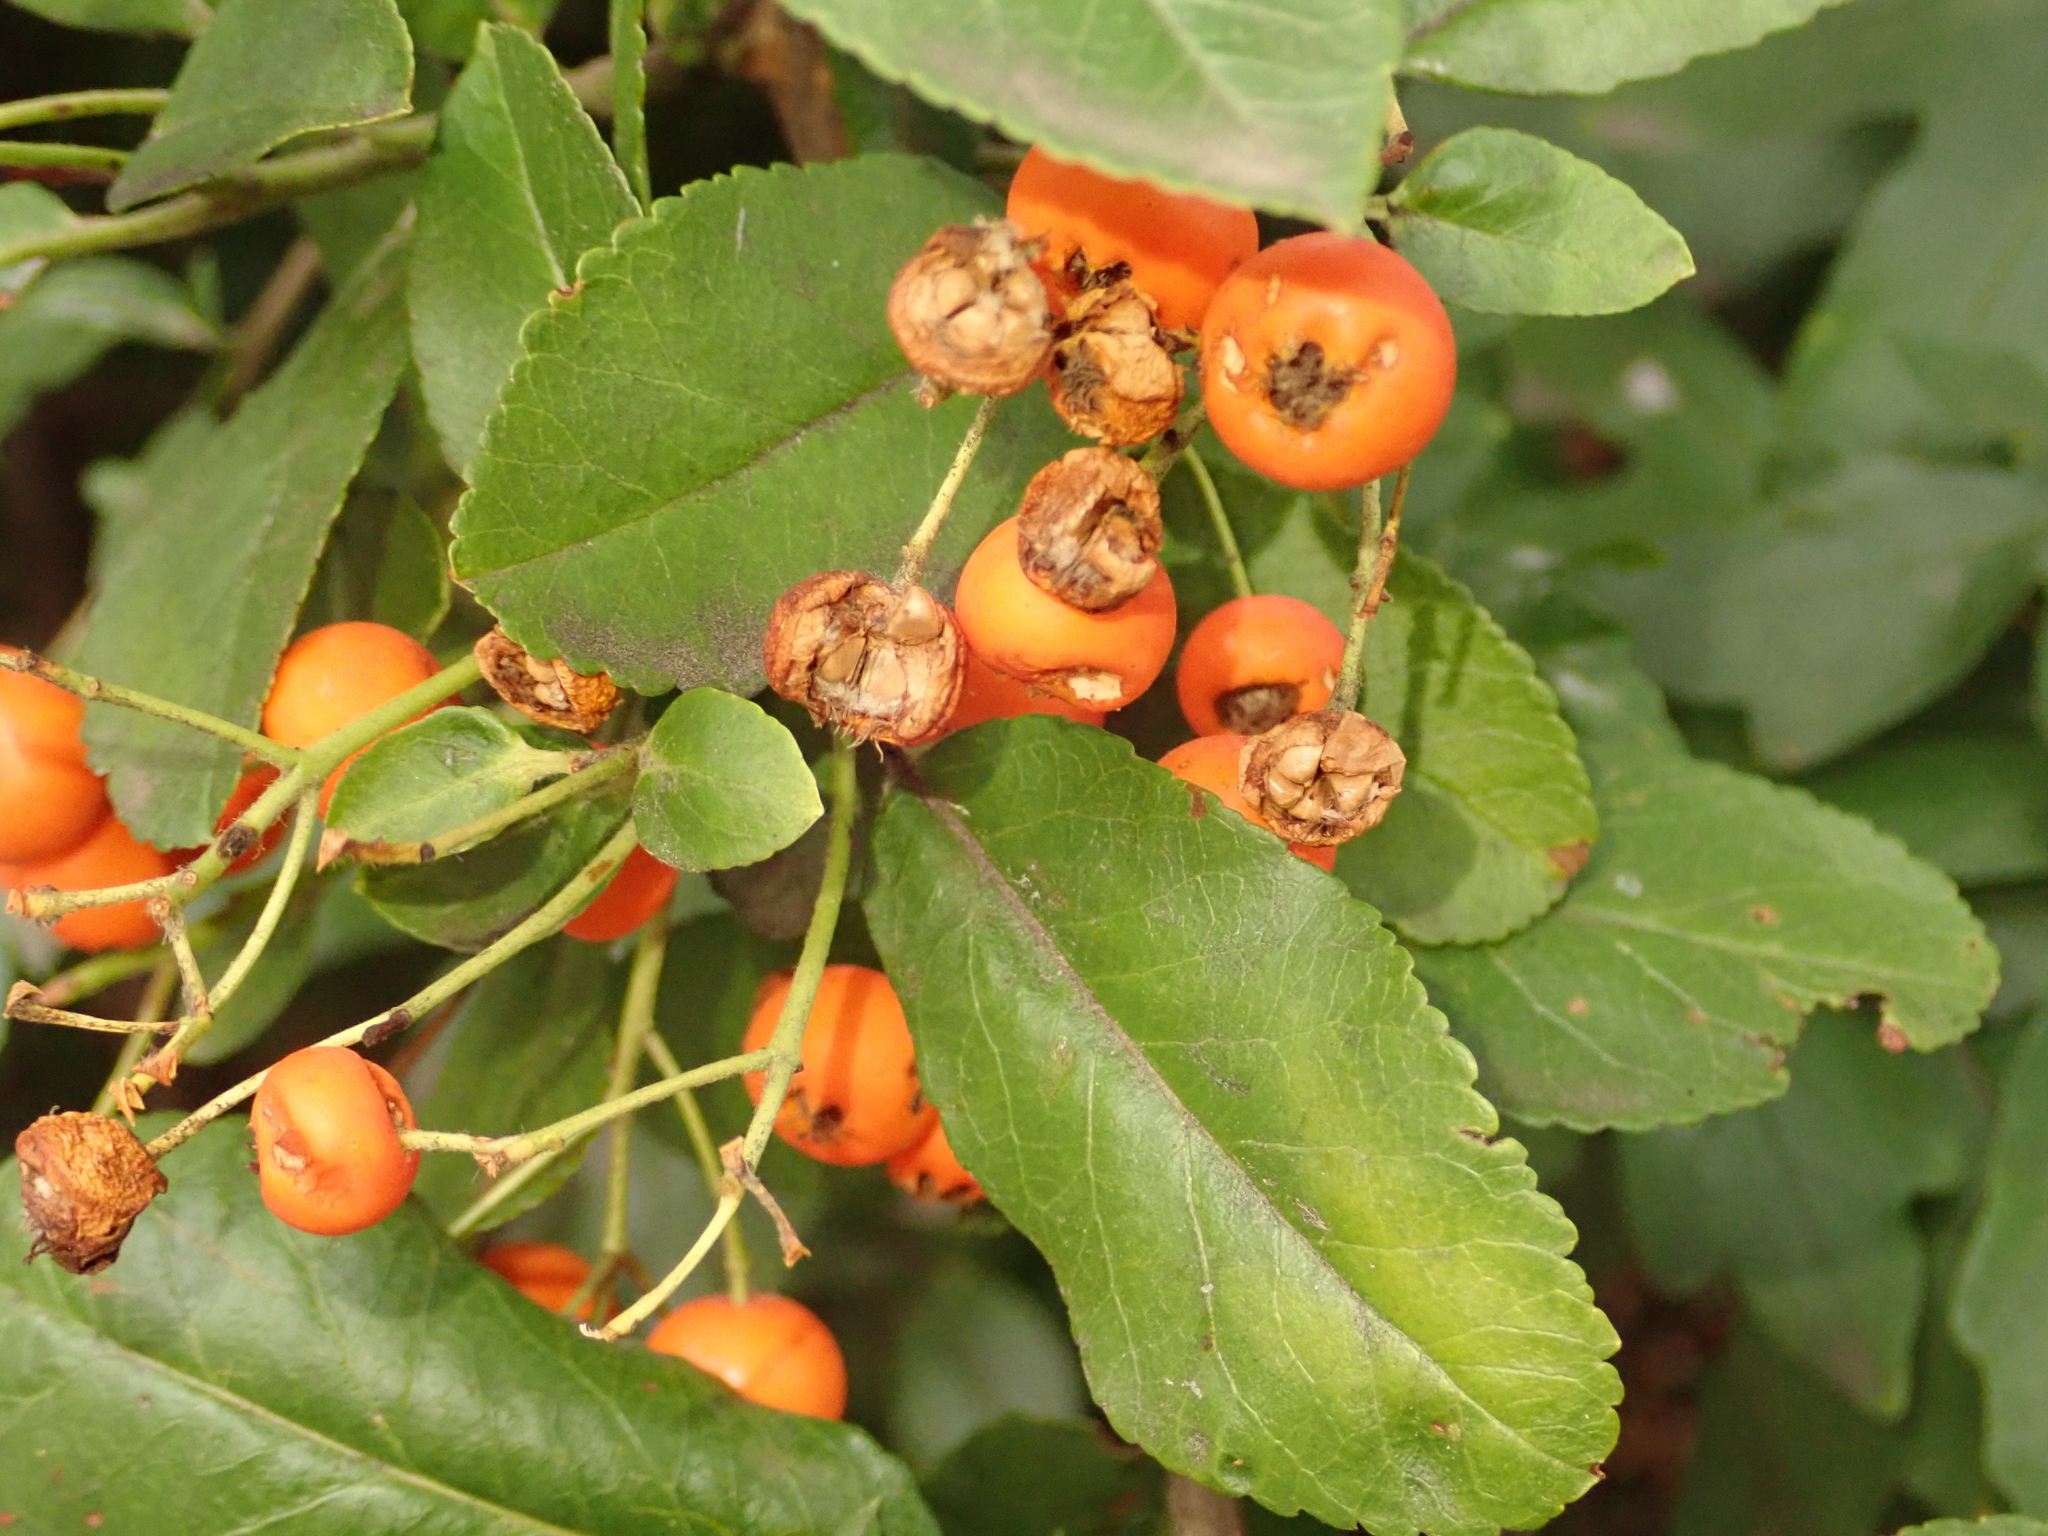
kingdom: Plantae
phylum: Tracheophyta
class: Magnoliopsida
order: Rosales
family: Rosaceae
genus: Pyracantha
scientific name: Pyracantha coccinea
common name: Firethorn
